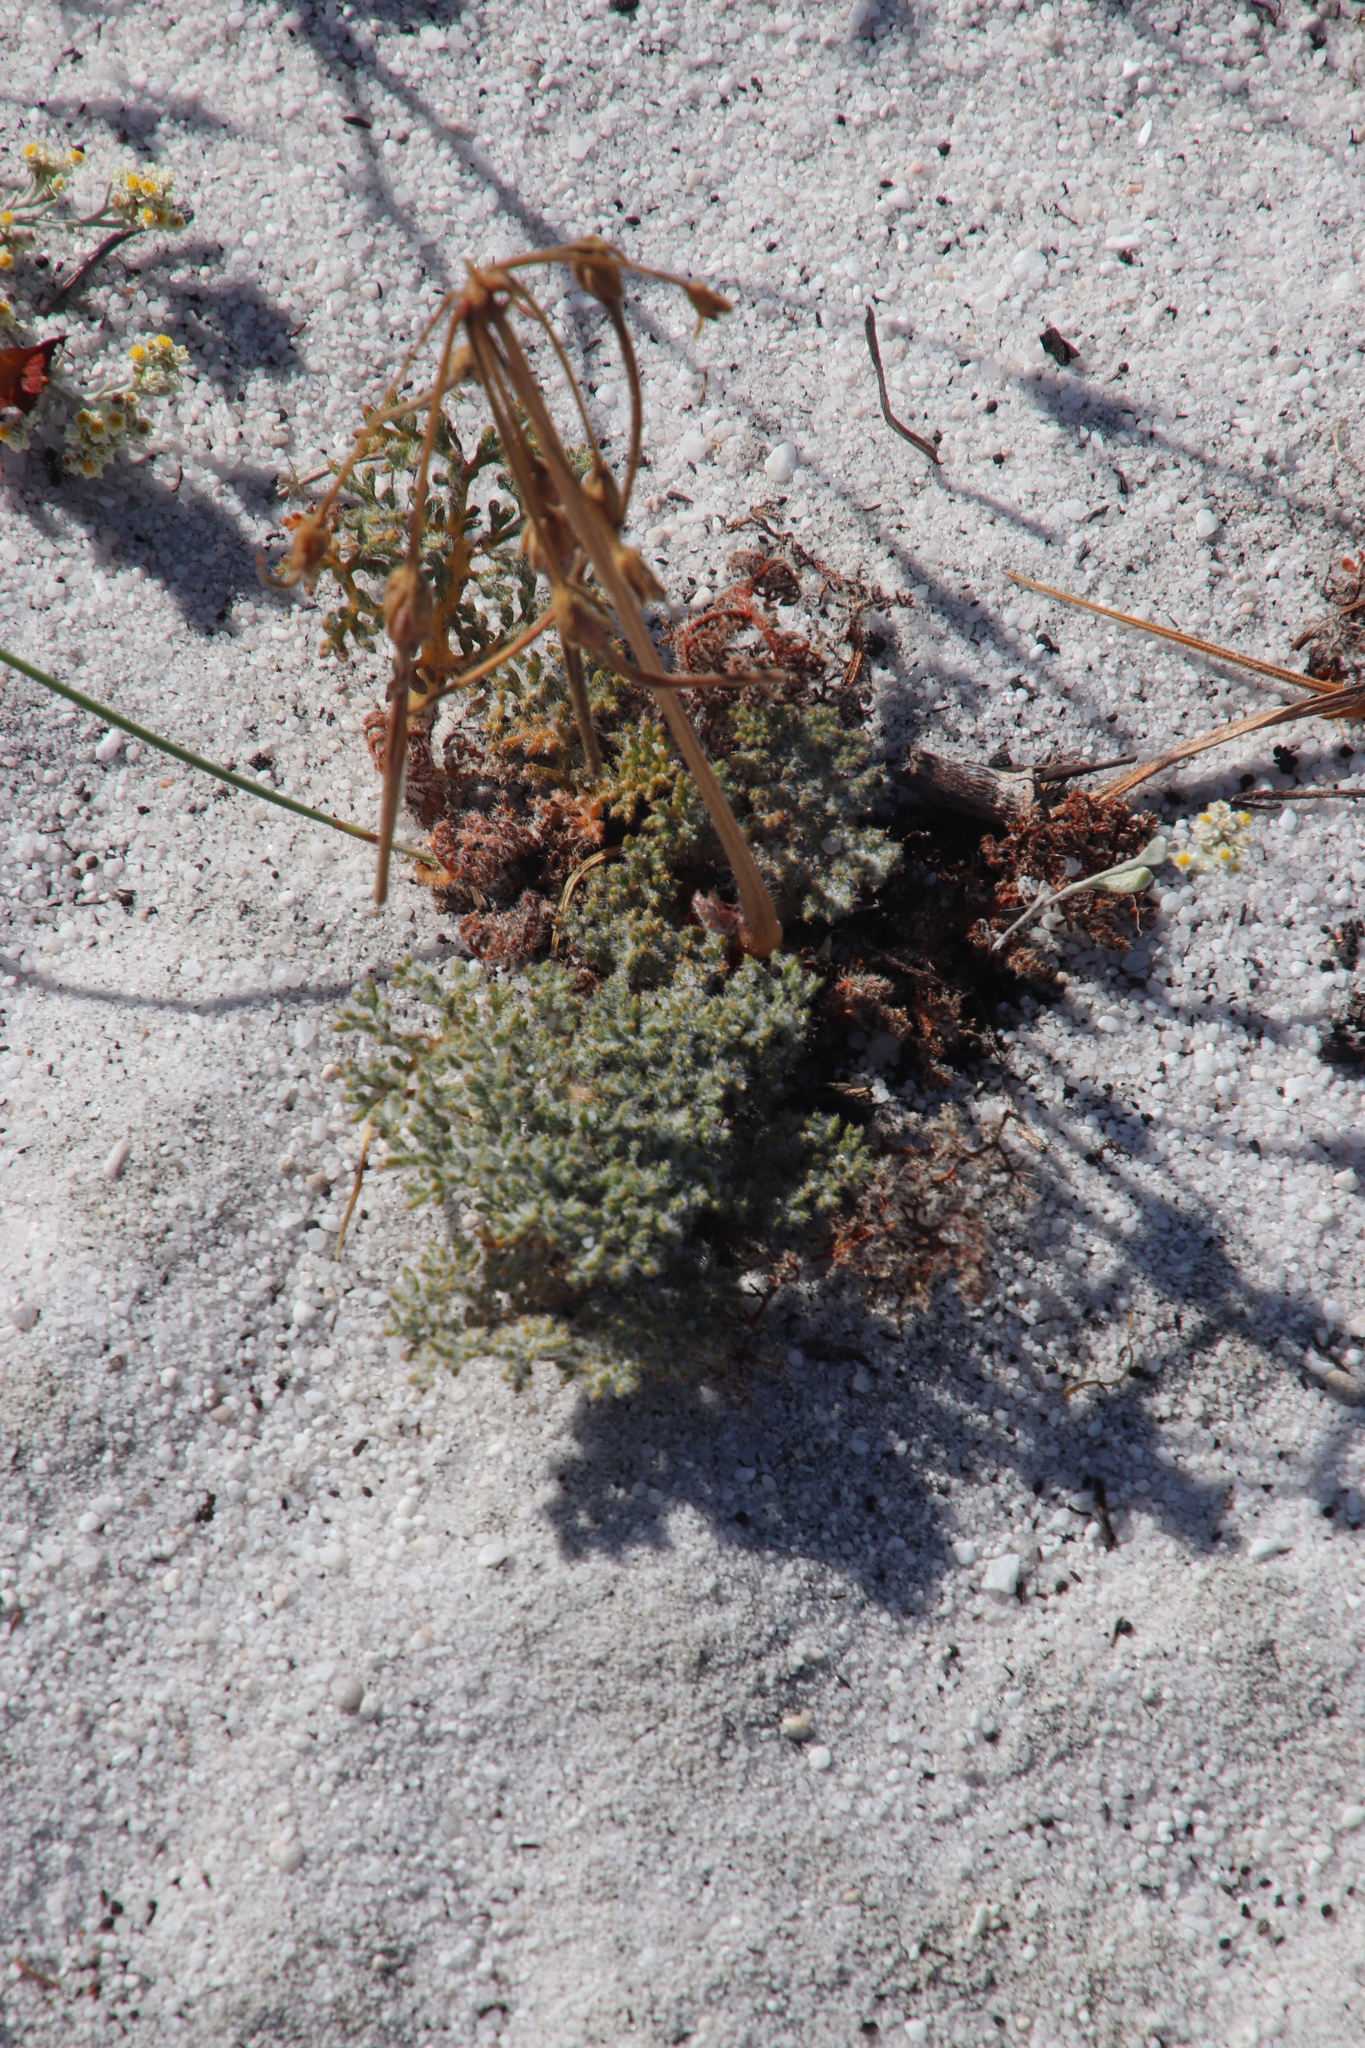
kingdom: Plantae
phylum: Tracheophyta
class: Magnoliopsida
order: Geraniales
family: Geraniaceae
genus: Pelargonium
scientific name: Pelargonium triste
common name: Night-scent pelargonium
